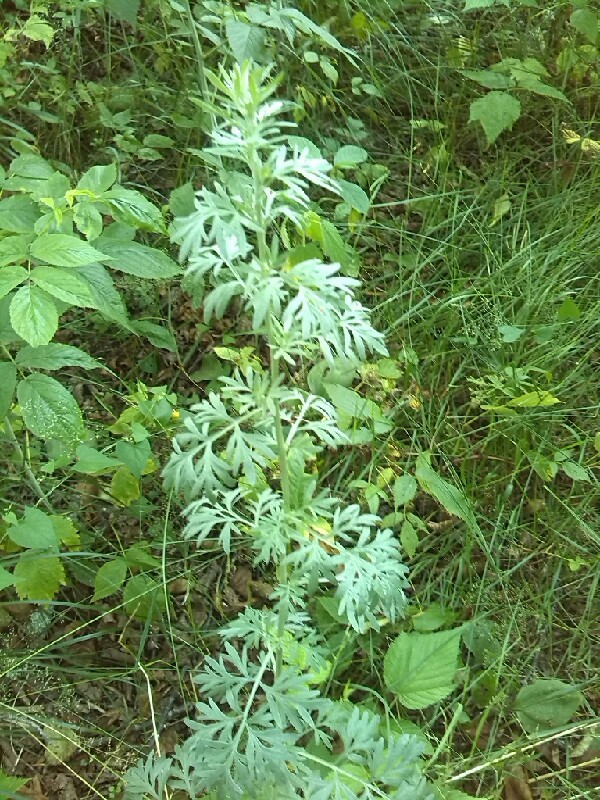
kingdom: Plantae
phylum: Tracheophyta
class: Magnoliopsida
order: Asterales
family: Asteraceae
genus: Artemisia
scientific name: Artemisia absinthium
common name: Wormwood
